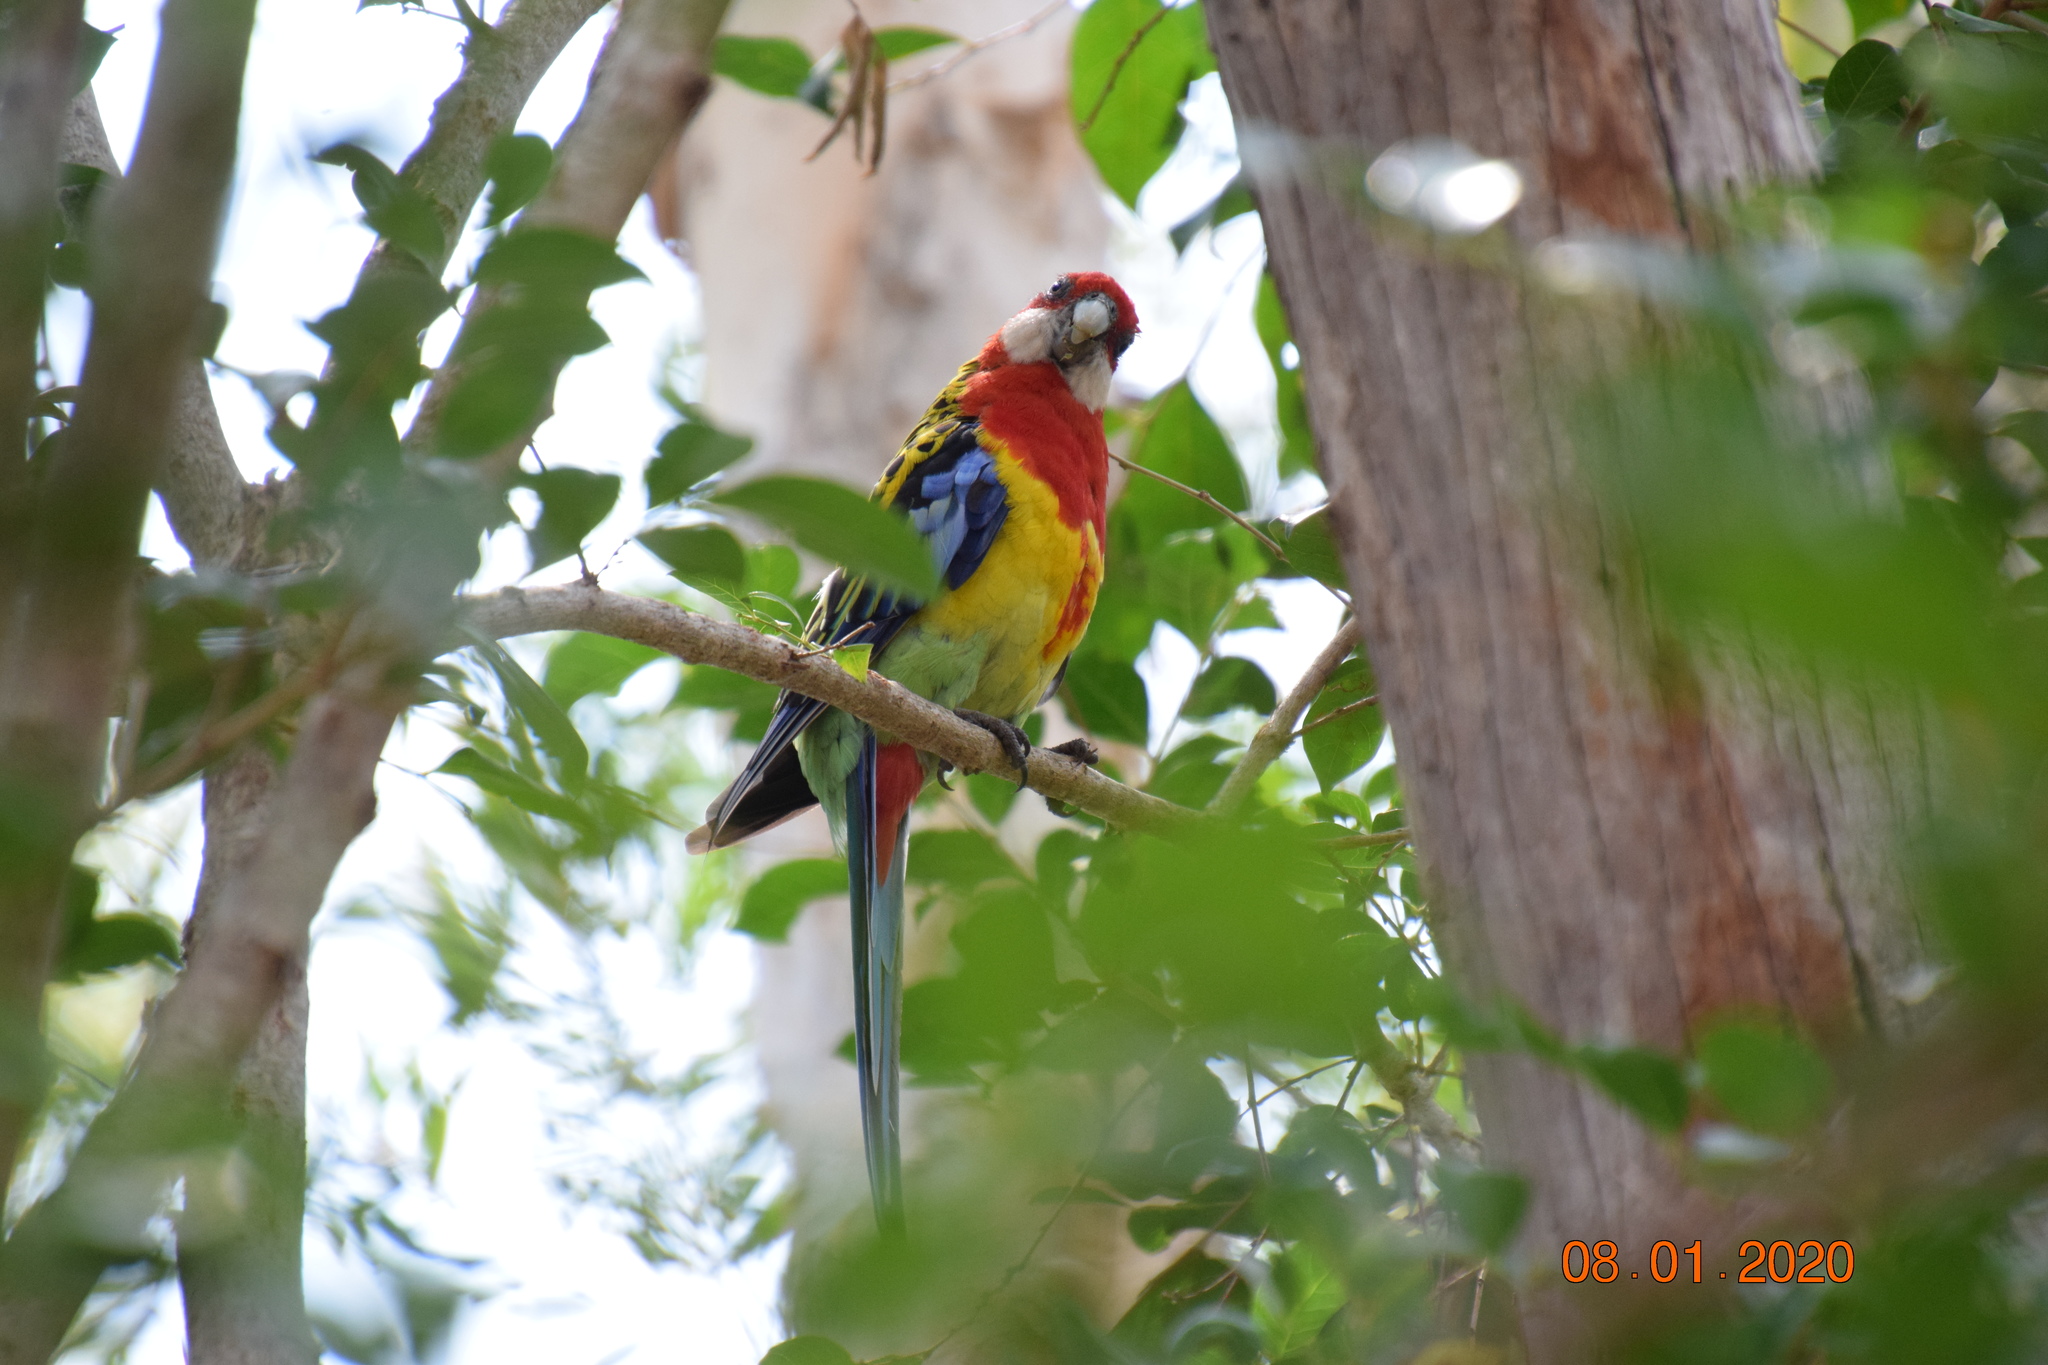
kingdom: Animalia
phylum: Chordata
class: Aves
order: Psittaciformes
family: Psittacidae
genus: Platycercus
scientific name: Platycercus eximius
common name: Eastern rosella
